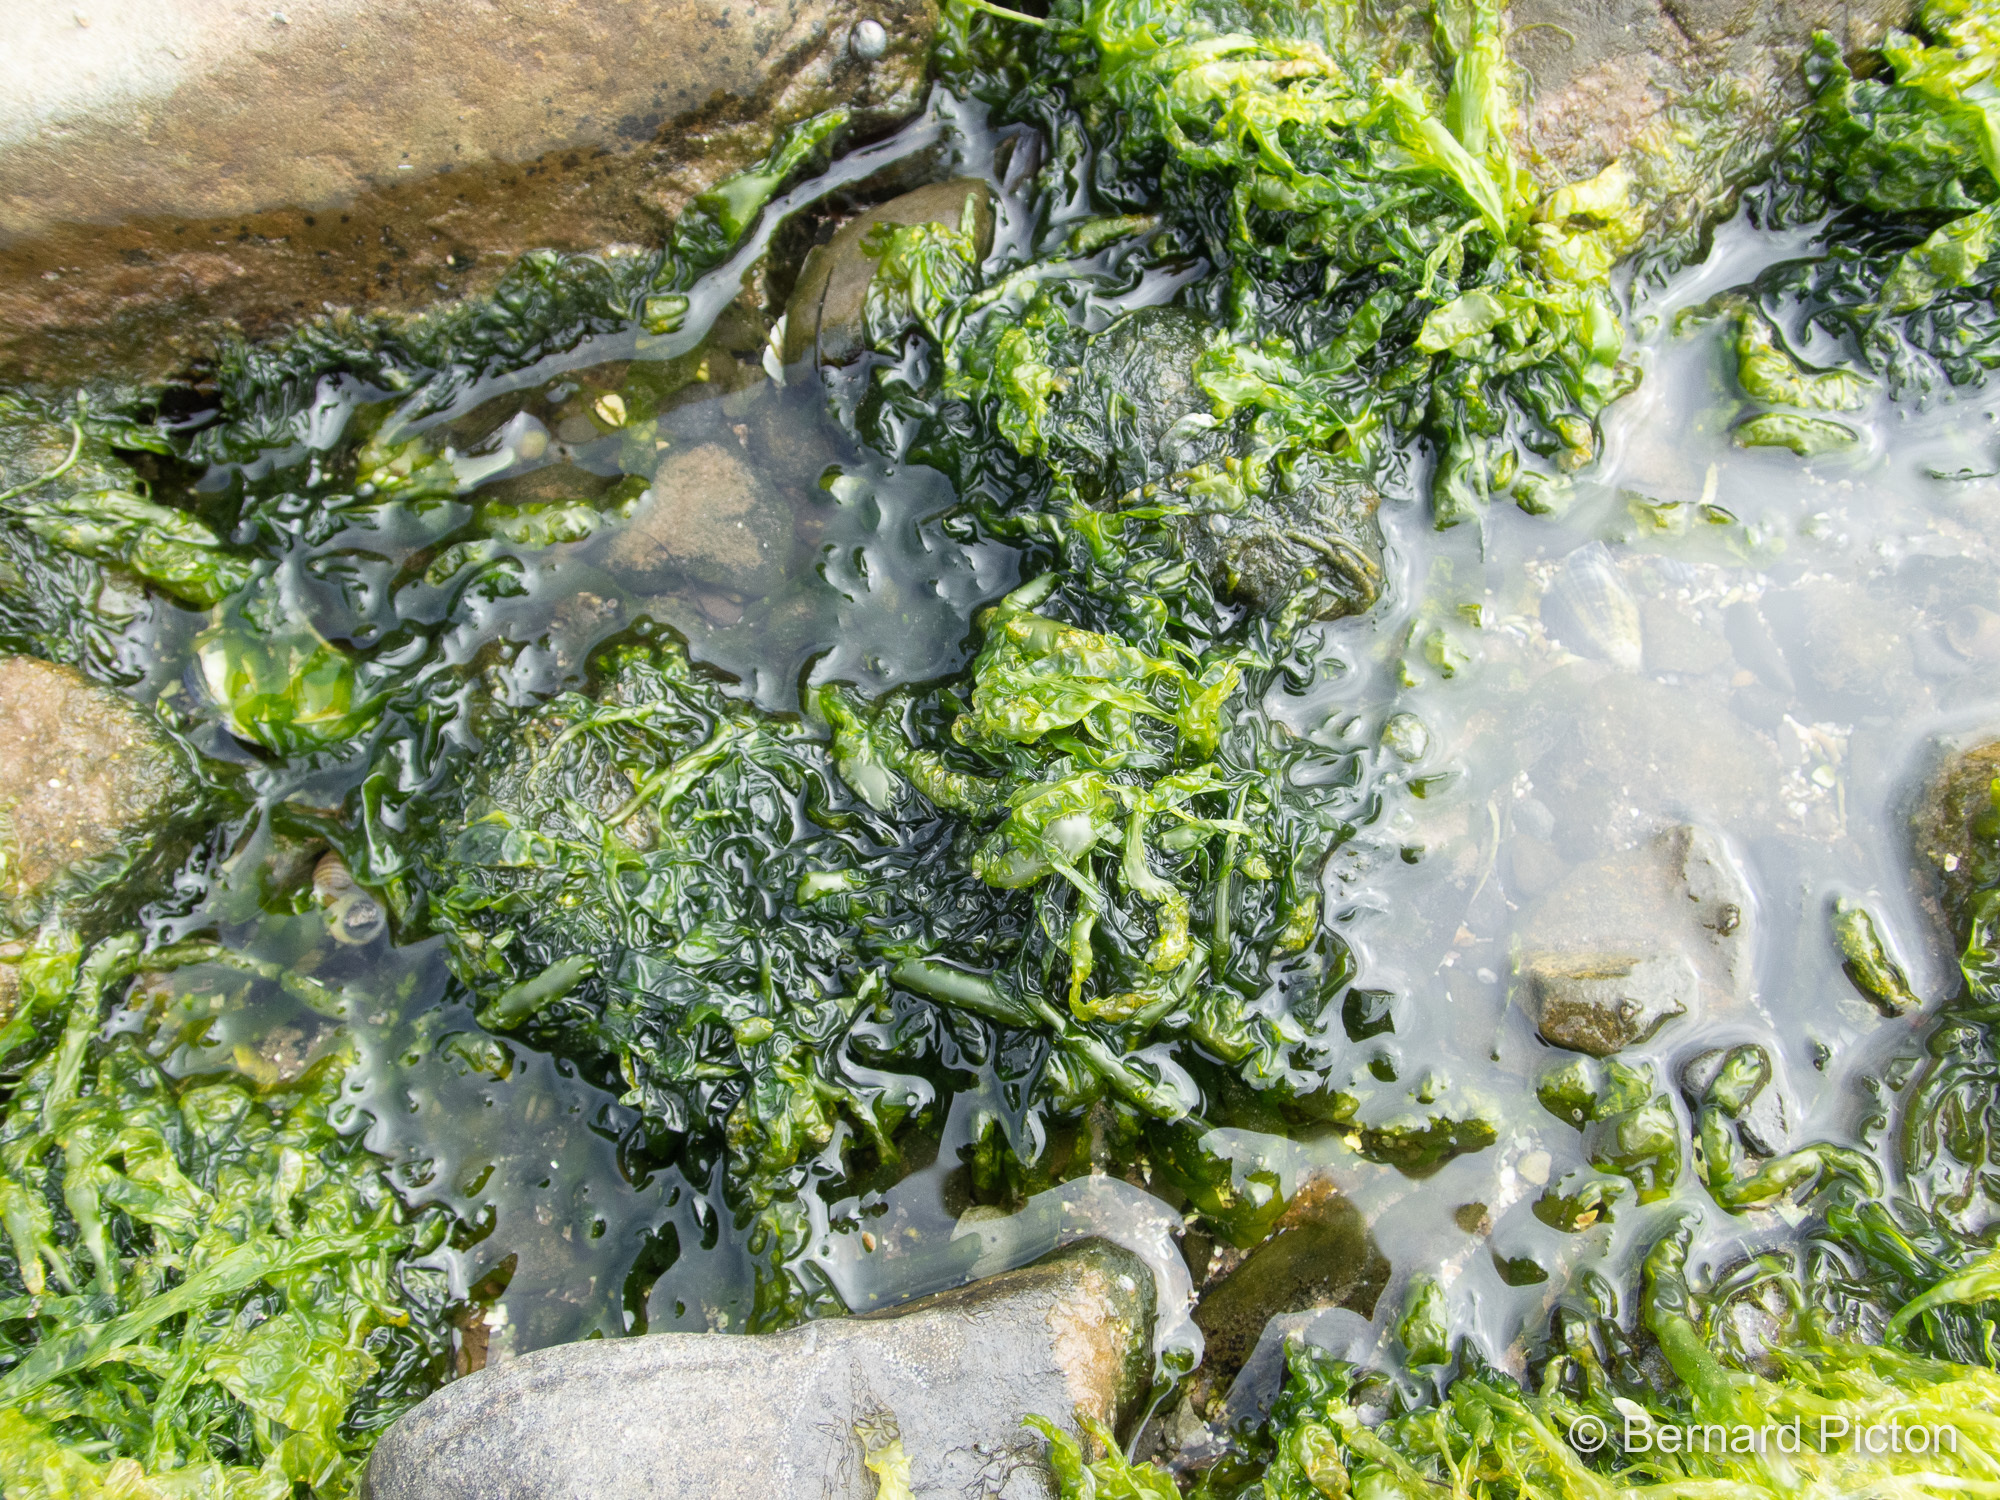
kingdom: Plantae
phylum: Chlorophyta
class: Ulvophyceae
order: Ulvales
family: Ulvaceae
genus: Ulva
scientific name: Ulva intestinalis
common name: Gut weed
